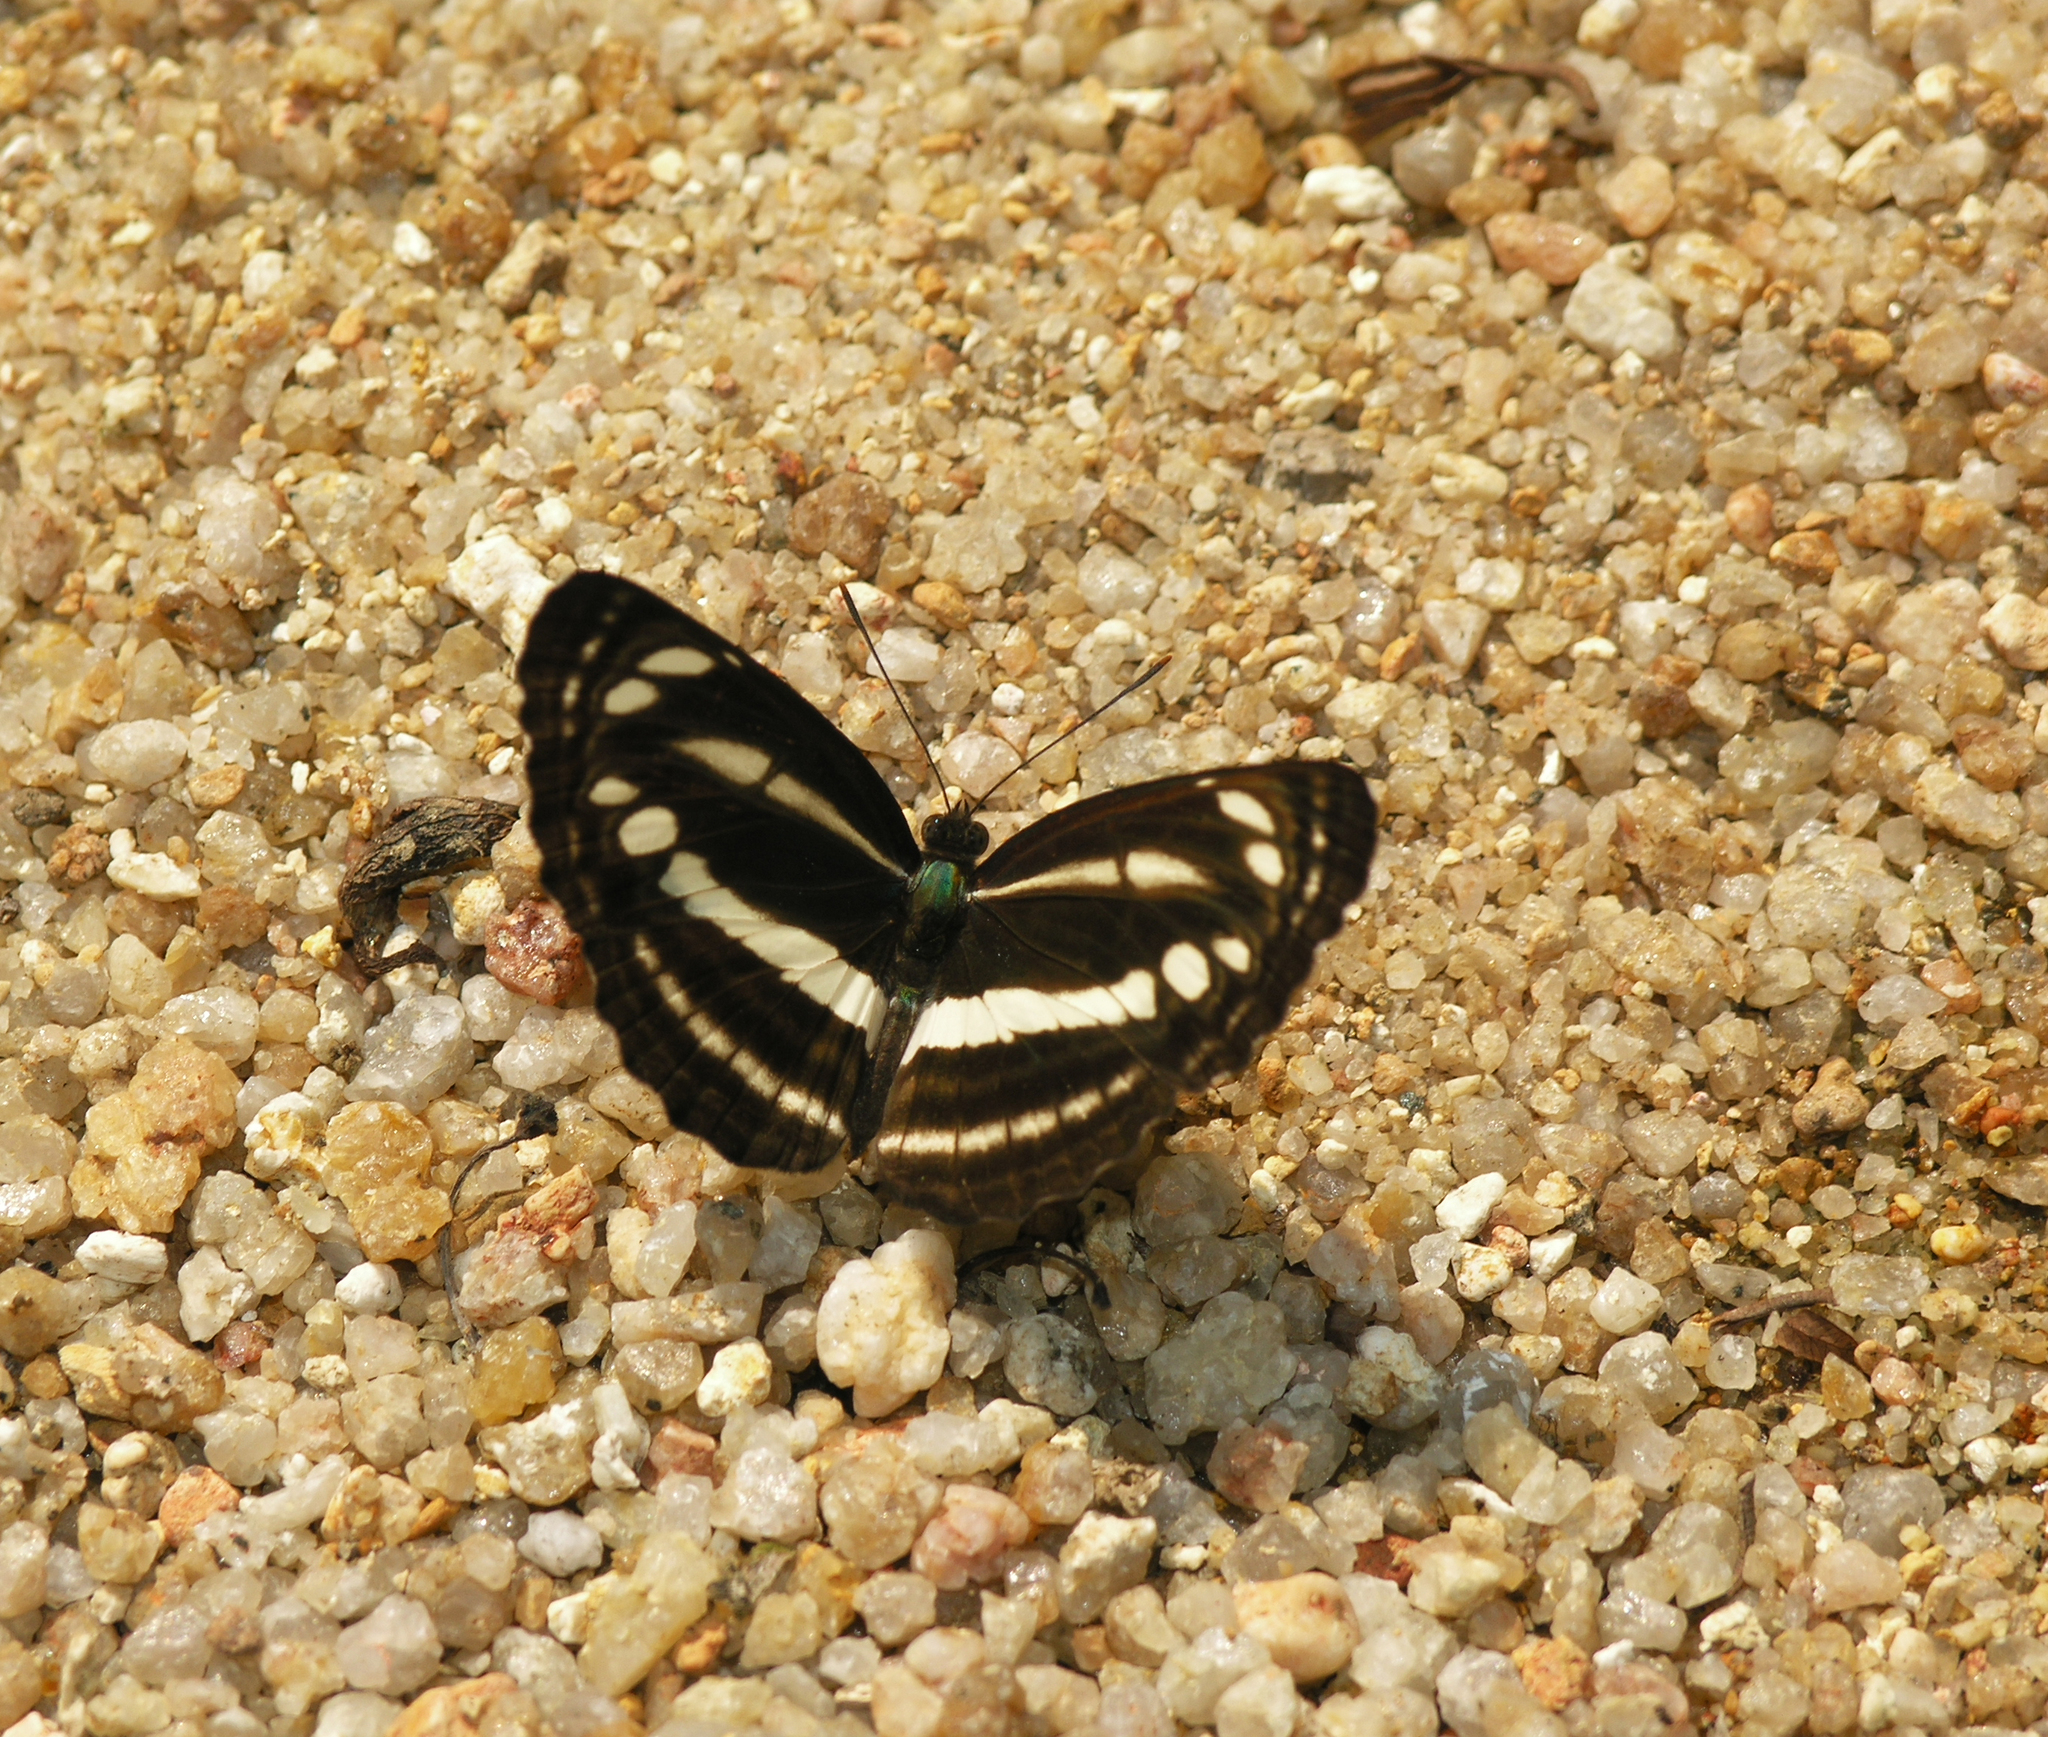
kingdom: Animalia
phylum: Arthropoda
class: Insecta
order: Lepidoptera
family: Nymphalidae
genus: Neptis
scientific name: Neptis clinia
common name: Southern sullied sailer
